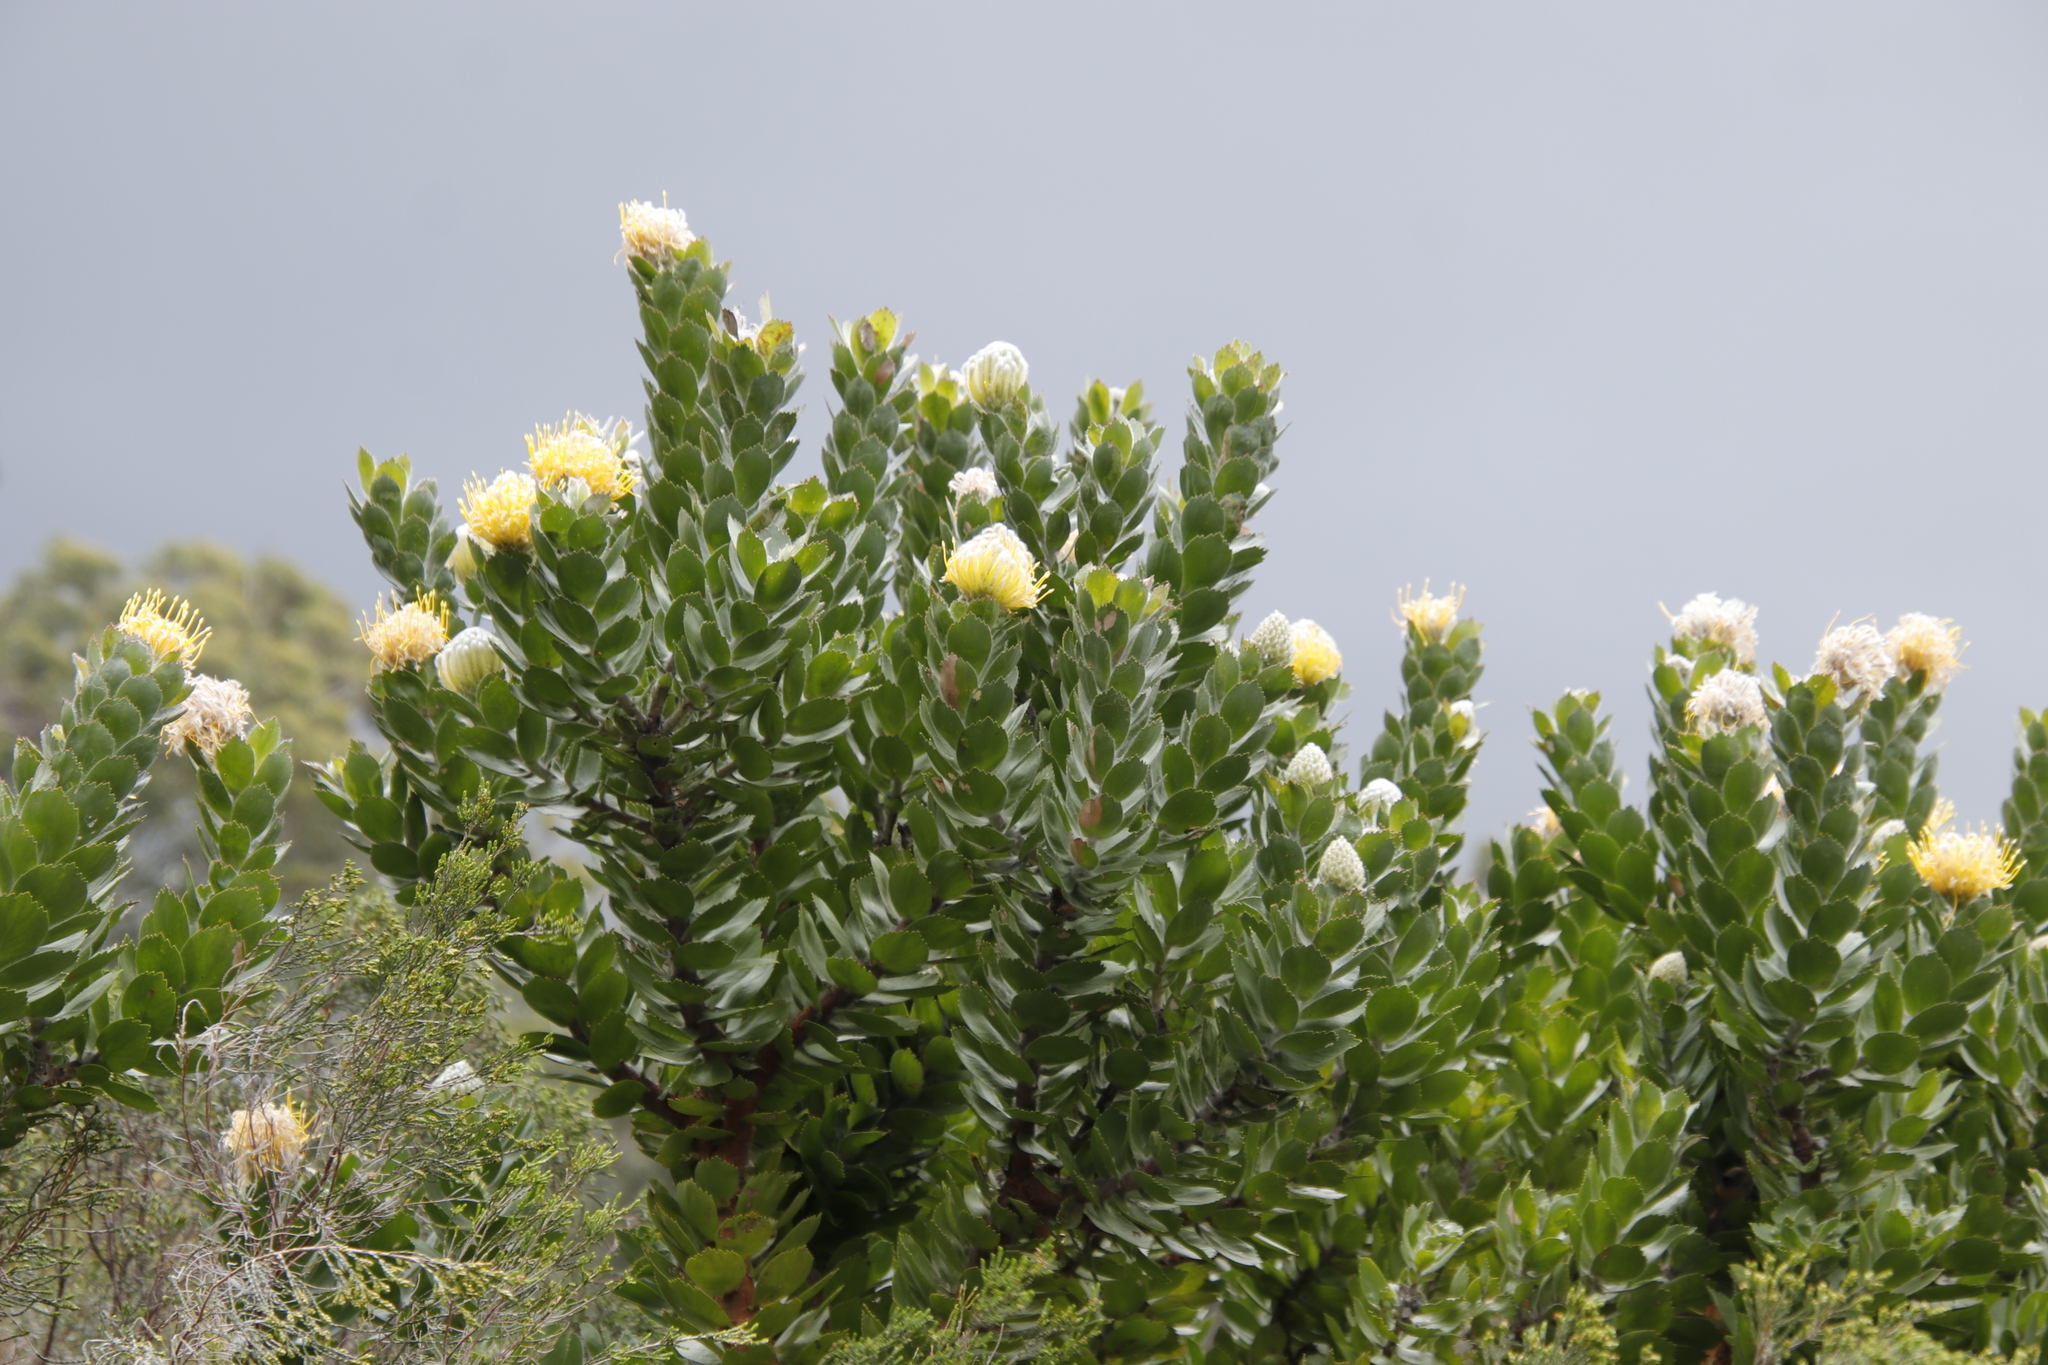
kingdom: Plantae
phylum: Tracheophyta
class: Magnoliopsida
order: Proteales
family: Proteaceae
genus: Leucospermum
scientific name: Leucospermum conocarpodendron
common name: Tree pincushion
